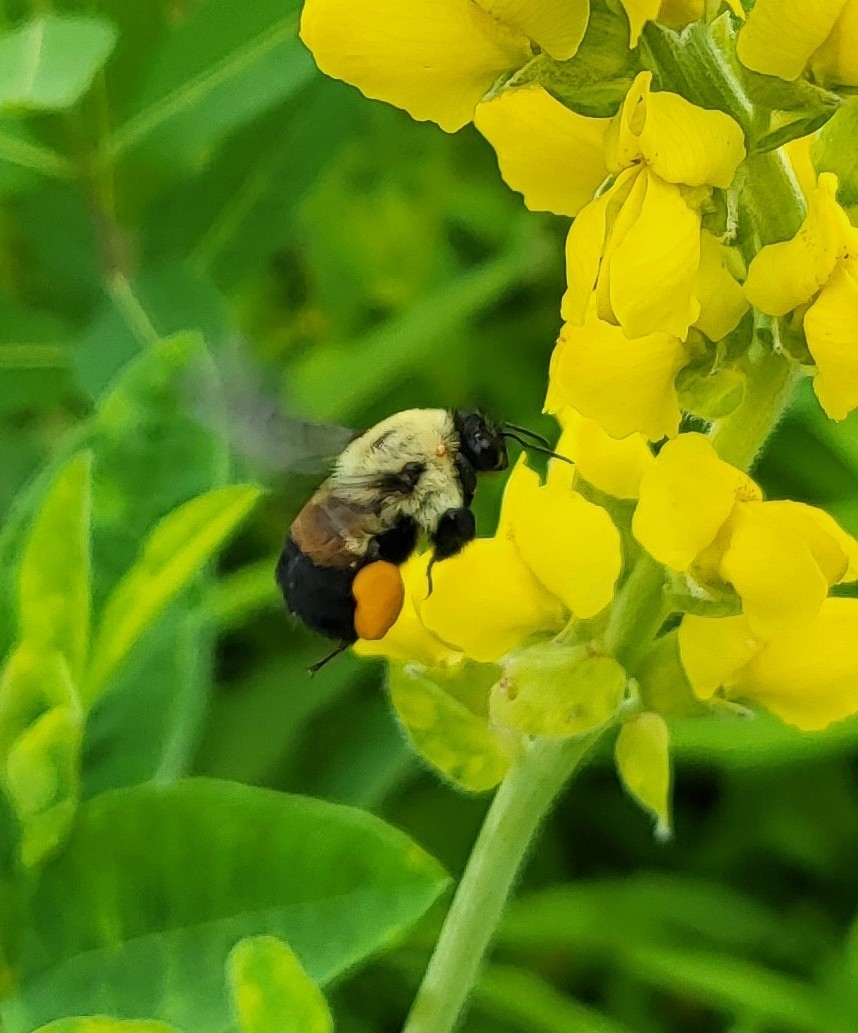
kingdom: Animalia
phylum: Arthropoda
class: Insecta
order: Hymenoptera
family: Apidae
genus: Bombus
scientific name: Bombus griseocollis
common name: Brown-belted bumble bee
